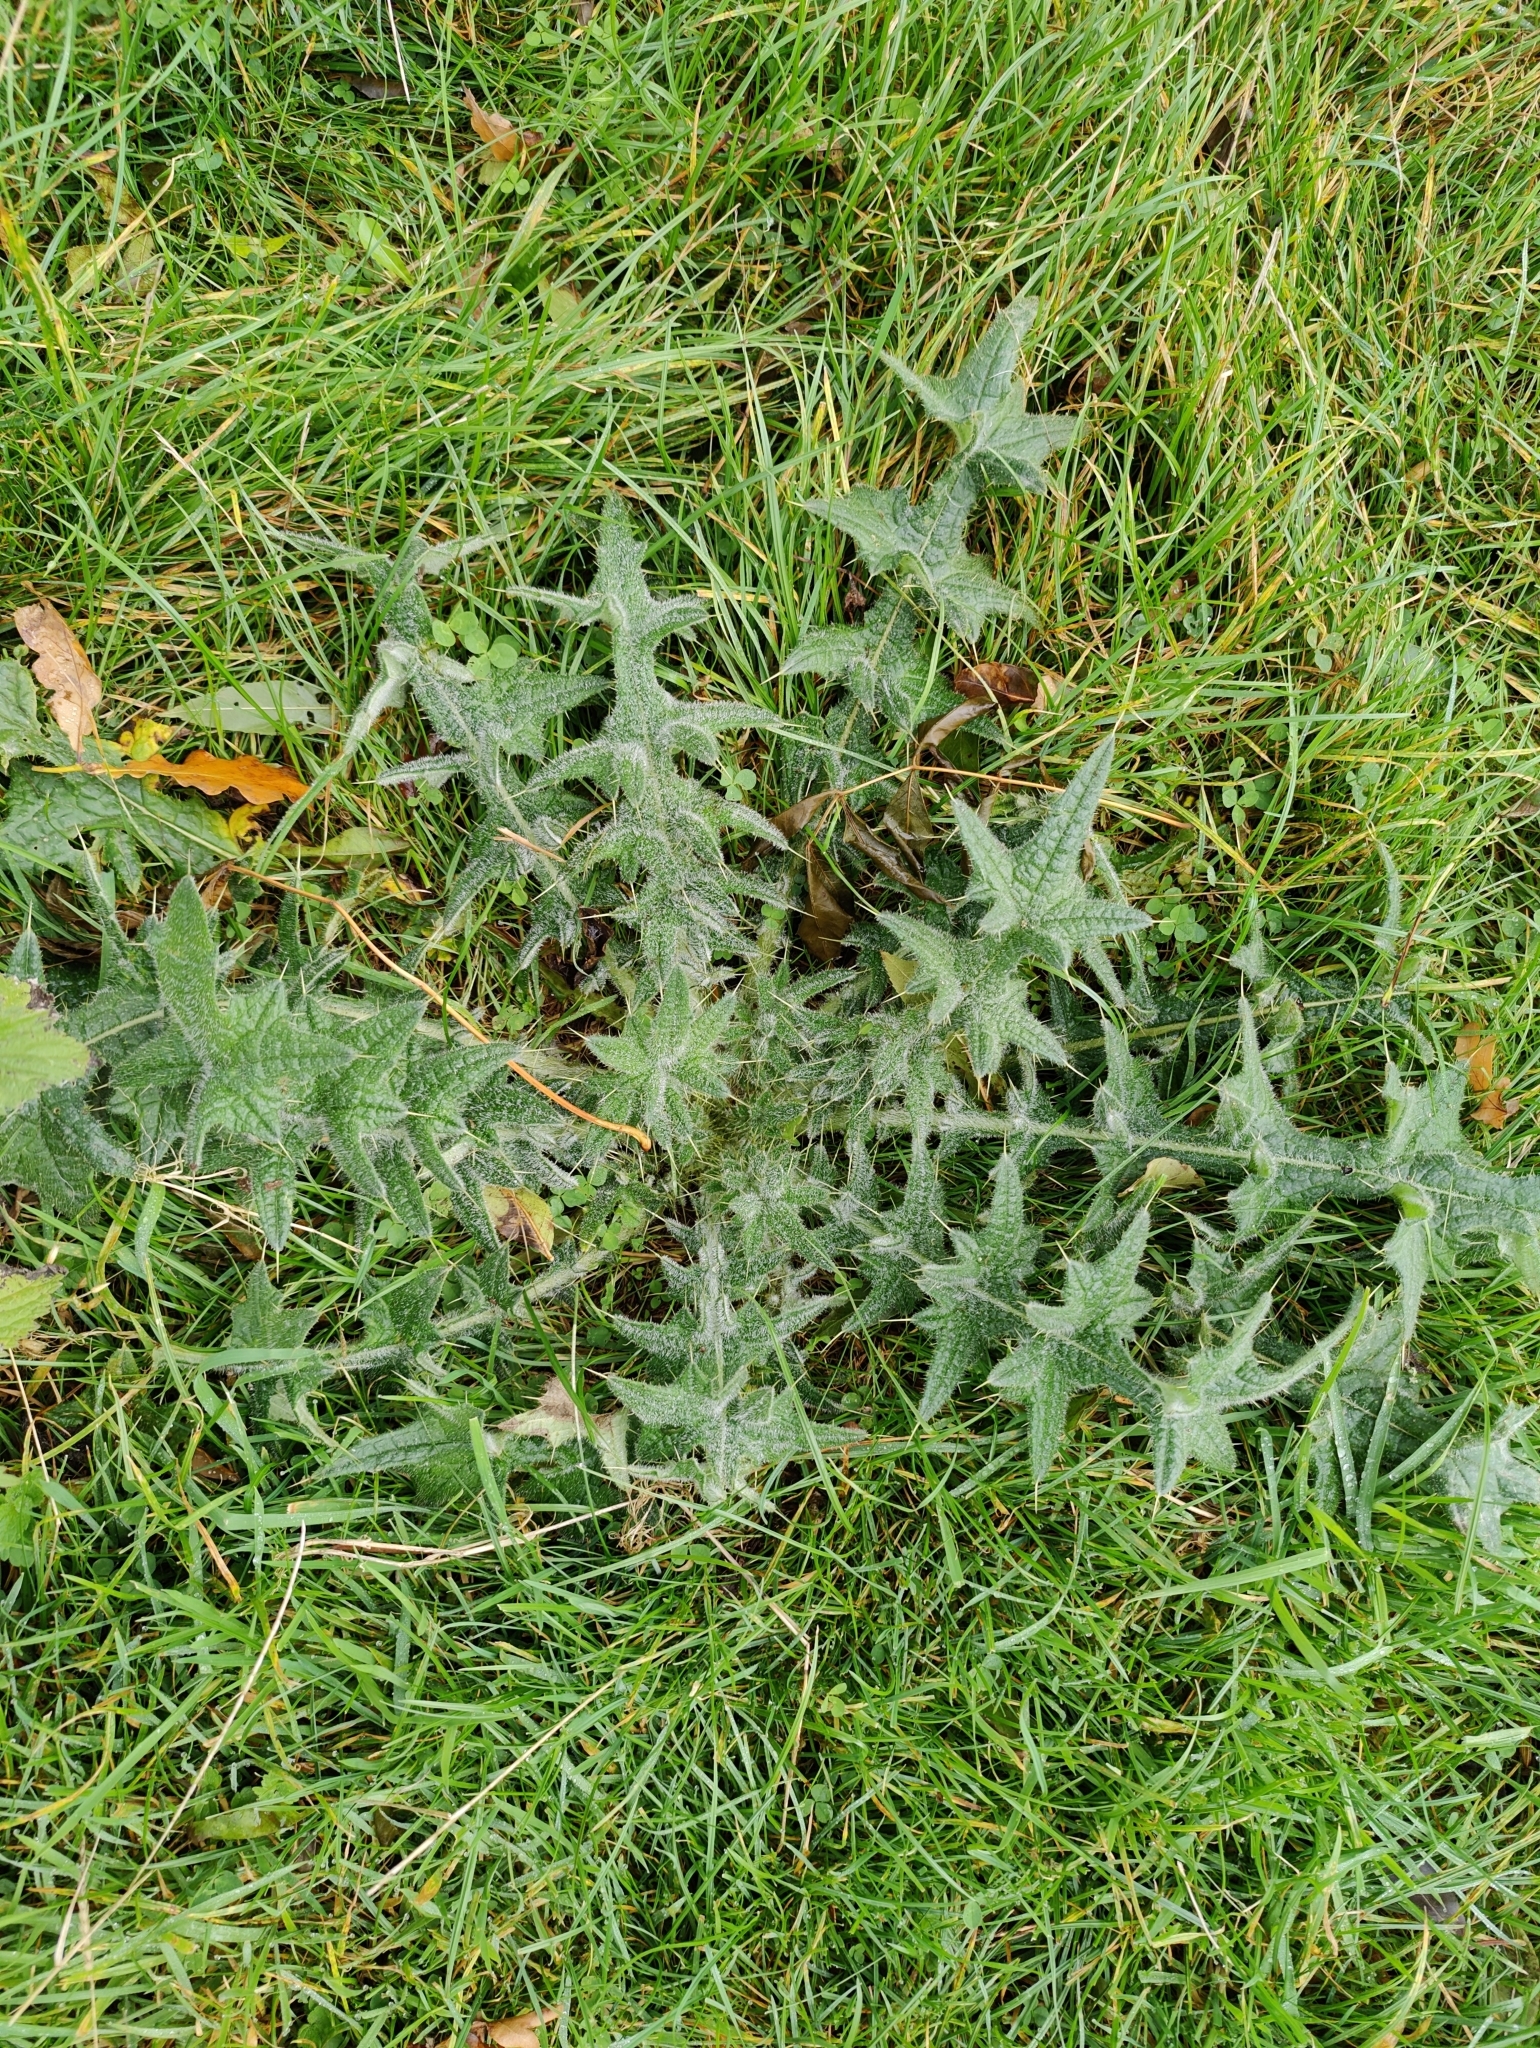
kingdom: Plantae
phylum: Tracheophyta
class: Magnoliopsida
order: Asterales
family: Asteraceae
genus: Cirsium
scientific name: Cirsium vulgare
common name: Bull thistle
